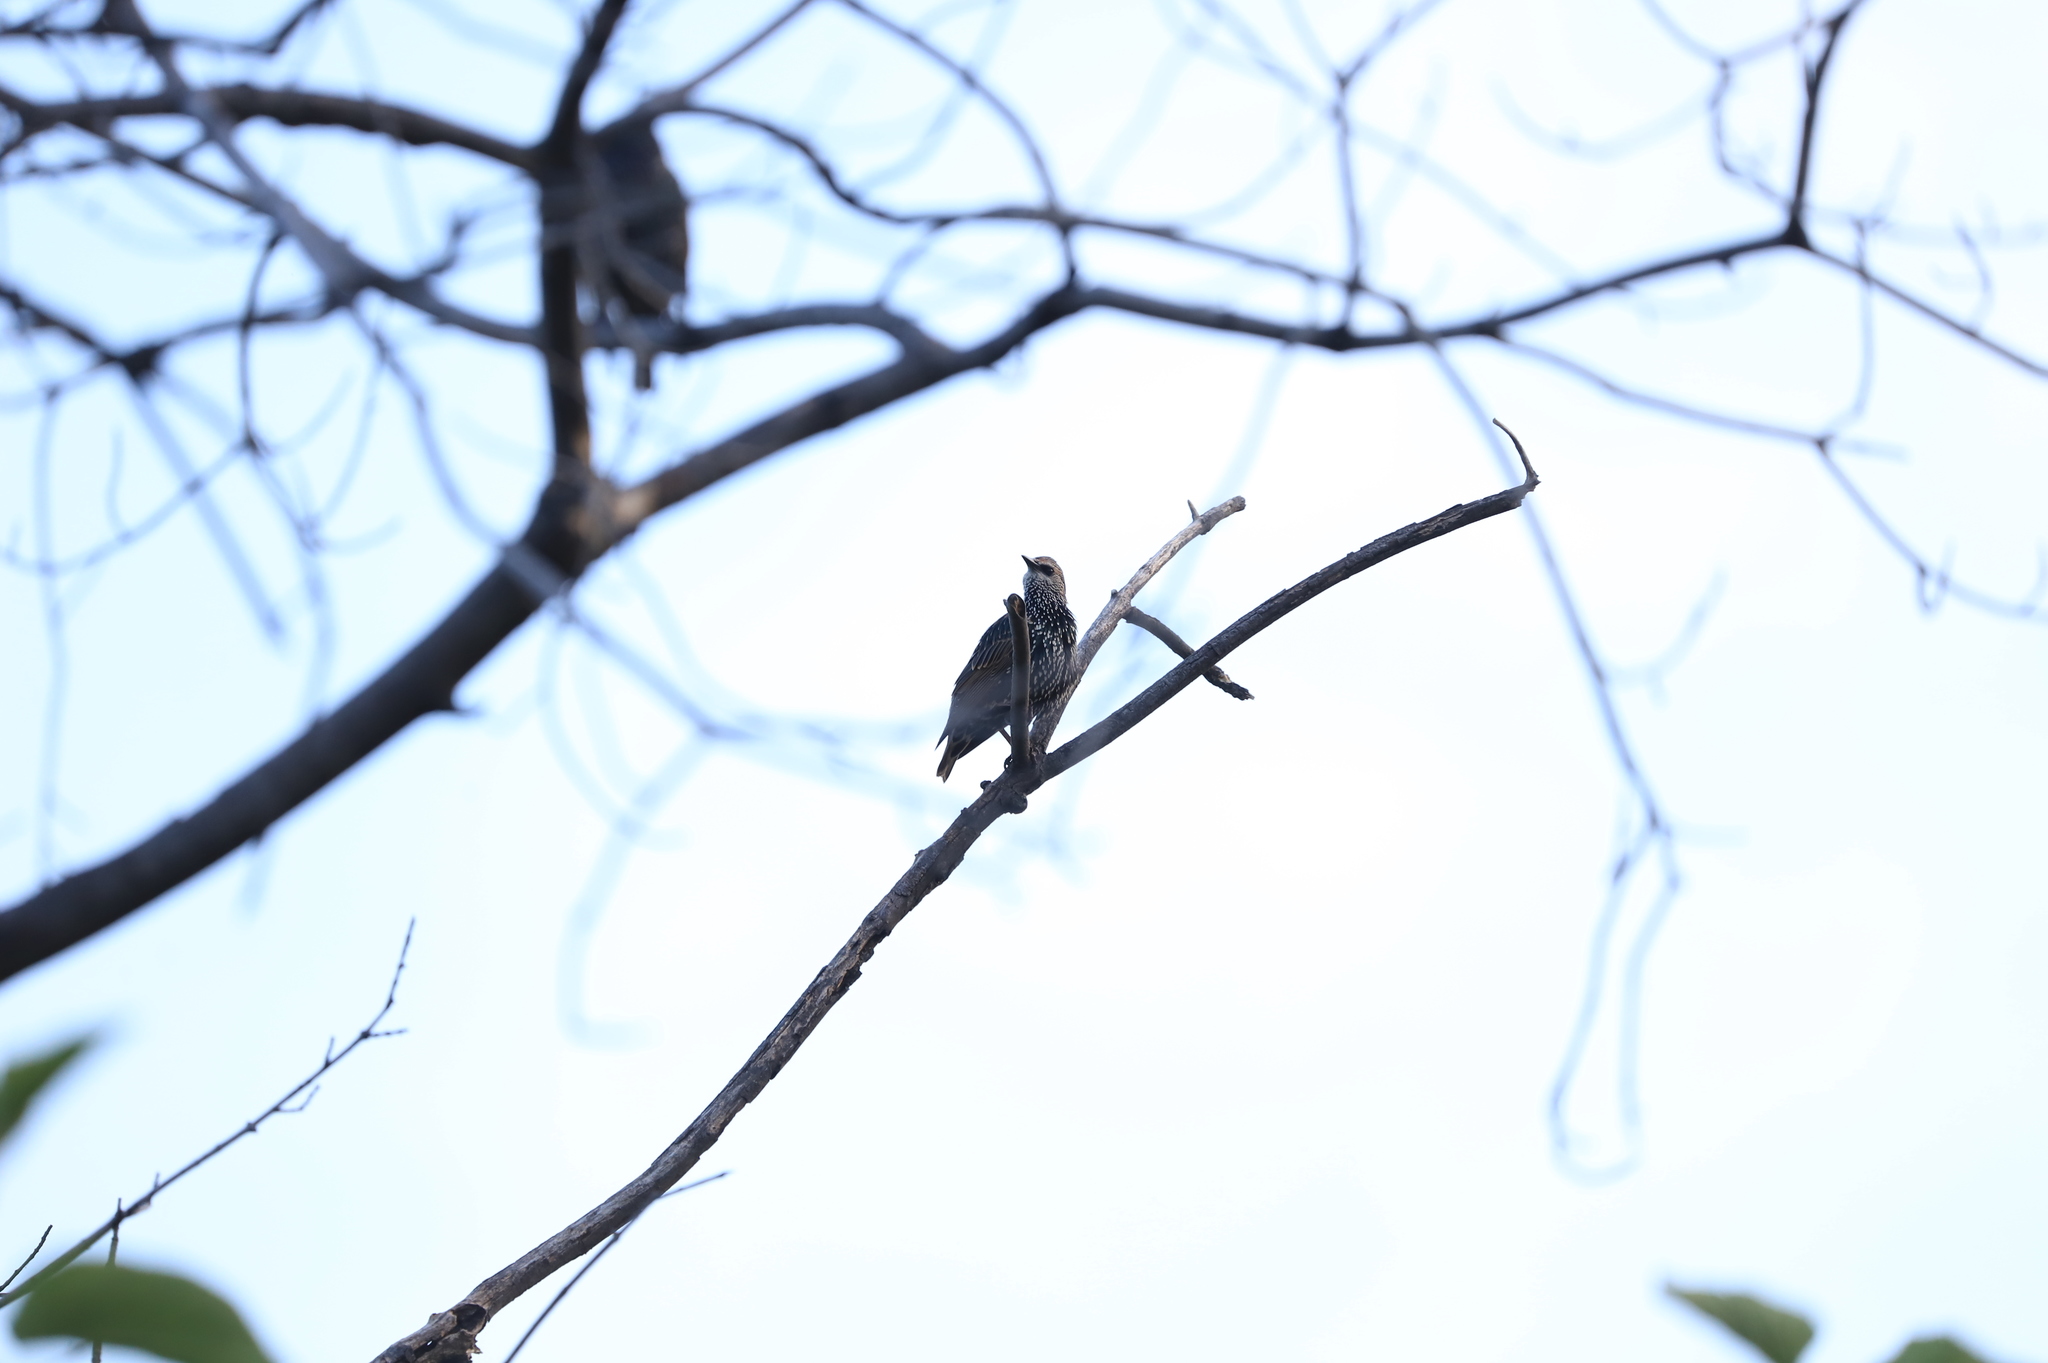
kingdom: Animalia
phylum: Chordata
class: Aves
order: Passeriformes
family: Sturnidae
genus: Sturnus
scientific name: Sturnus vulgaris
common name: Common starling
